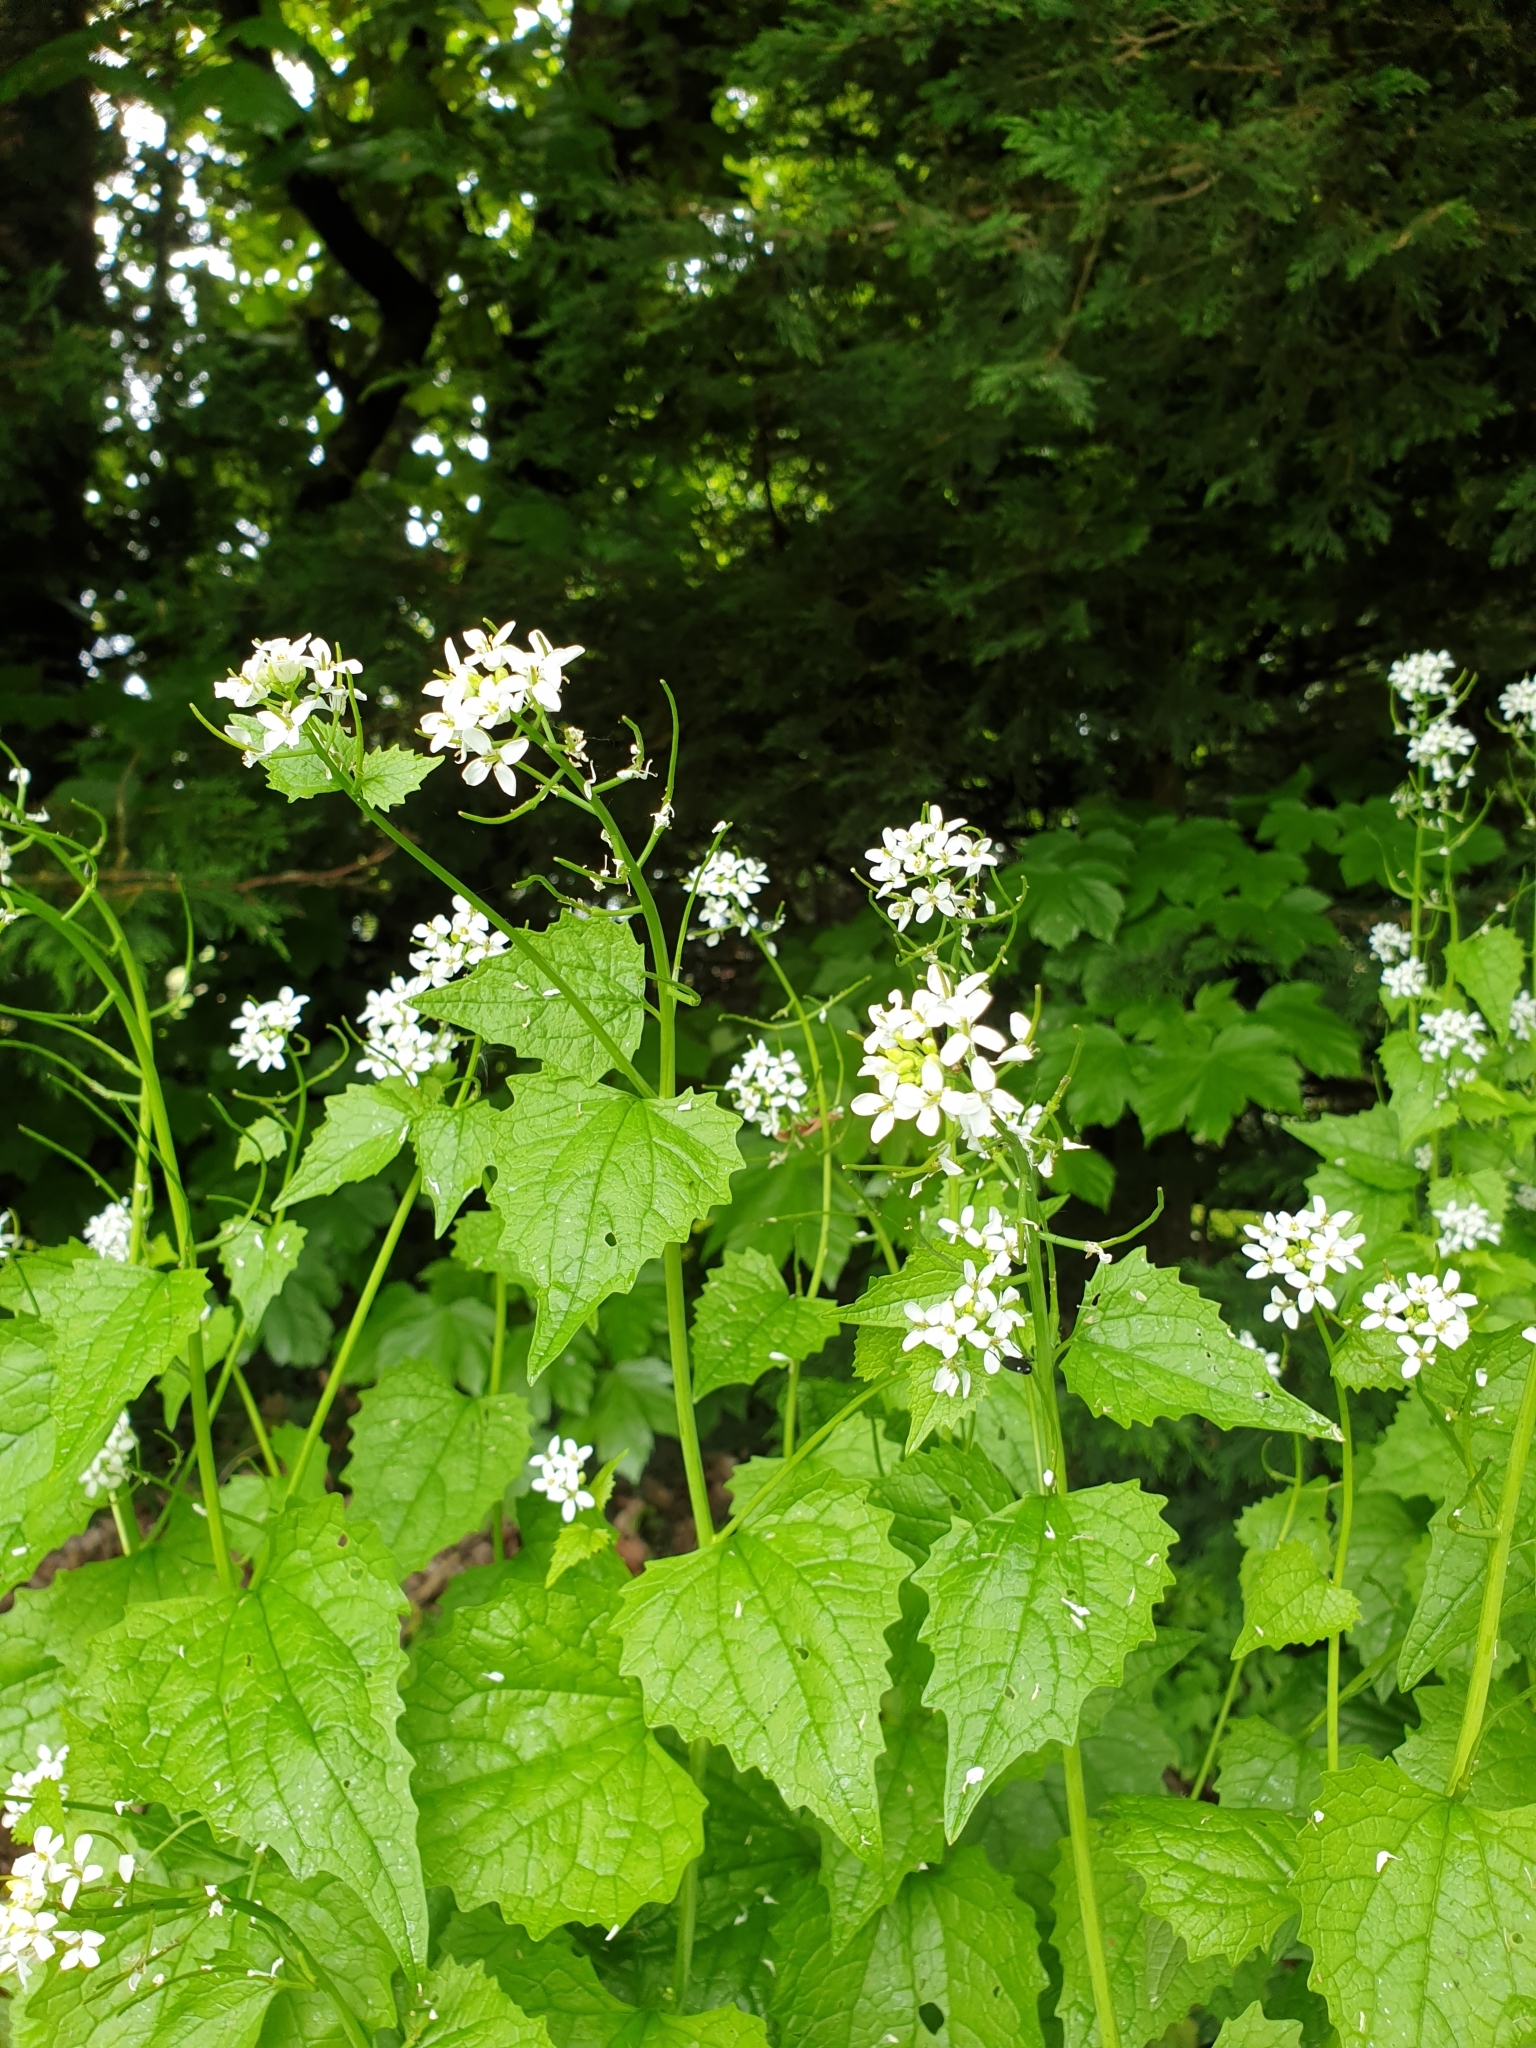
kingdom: Plantae
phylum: Tracheophyta
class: Magnoliopsida
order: Brassicales
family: Brassicaceae
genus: Alliaria
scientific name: Alliaria petiolata
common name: Garlic mustard
